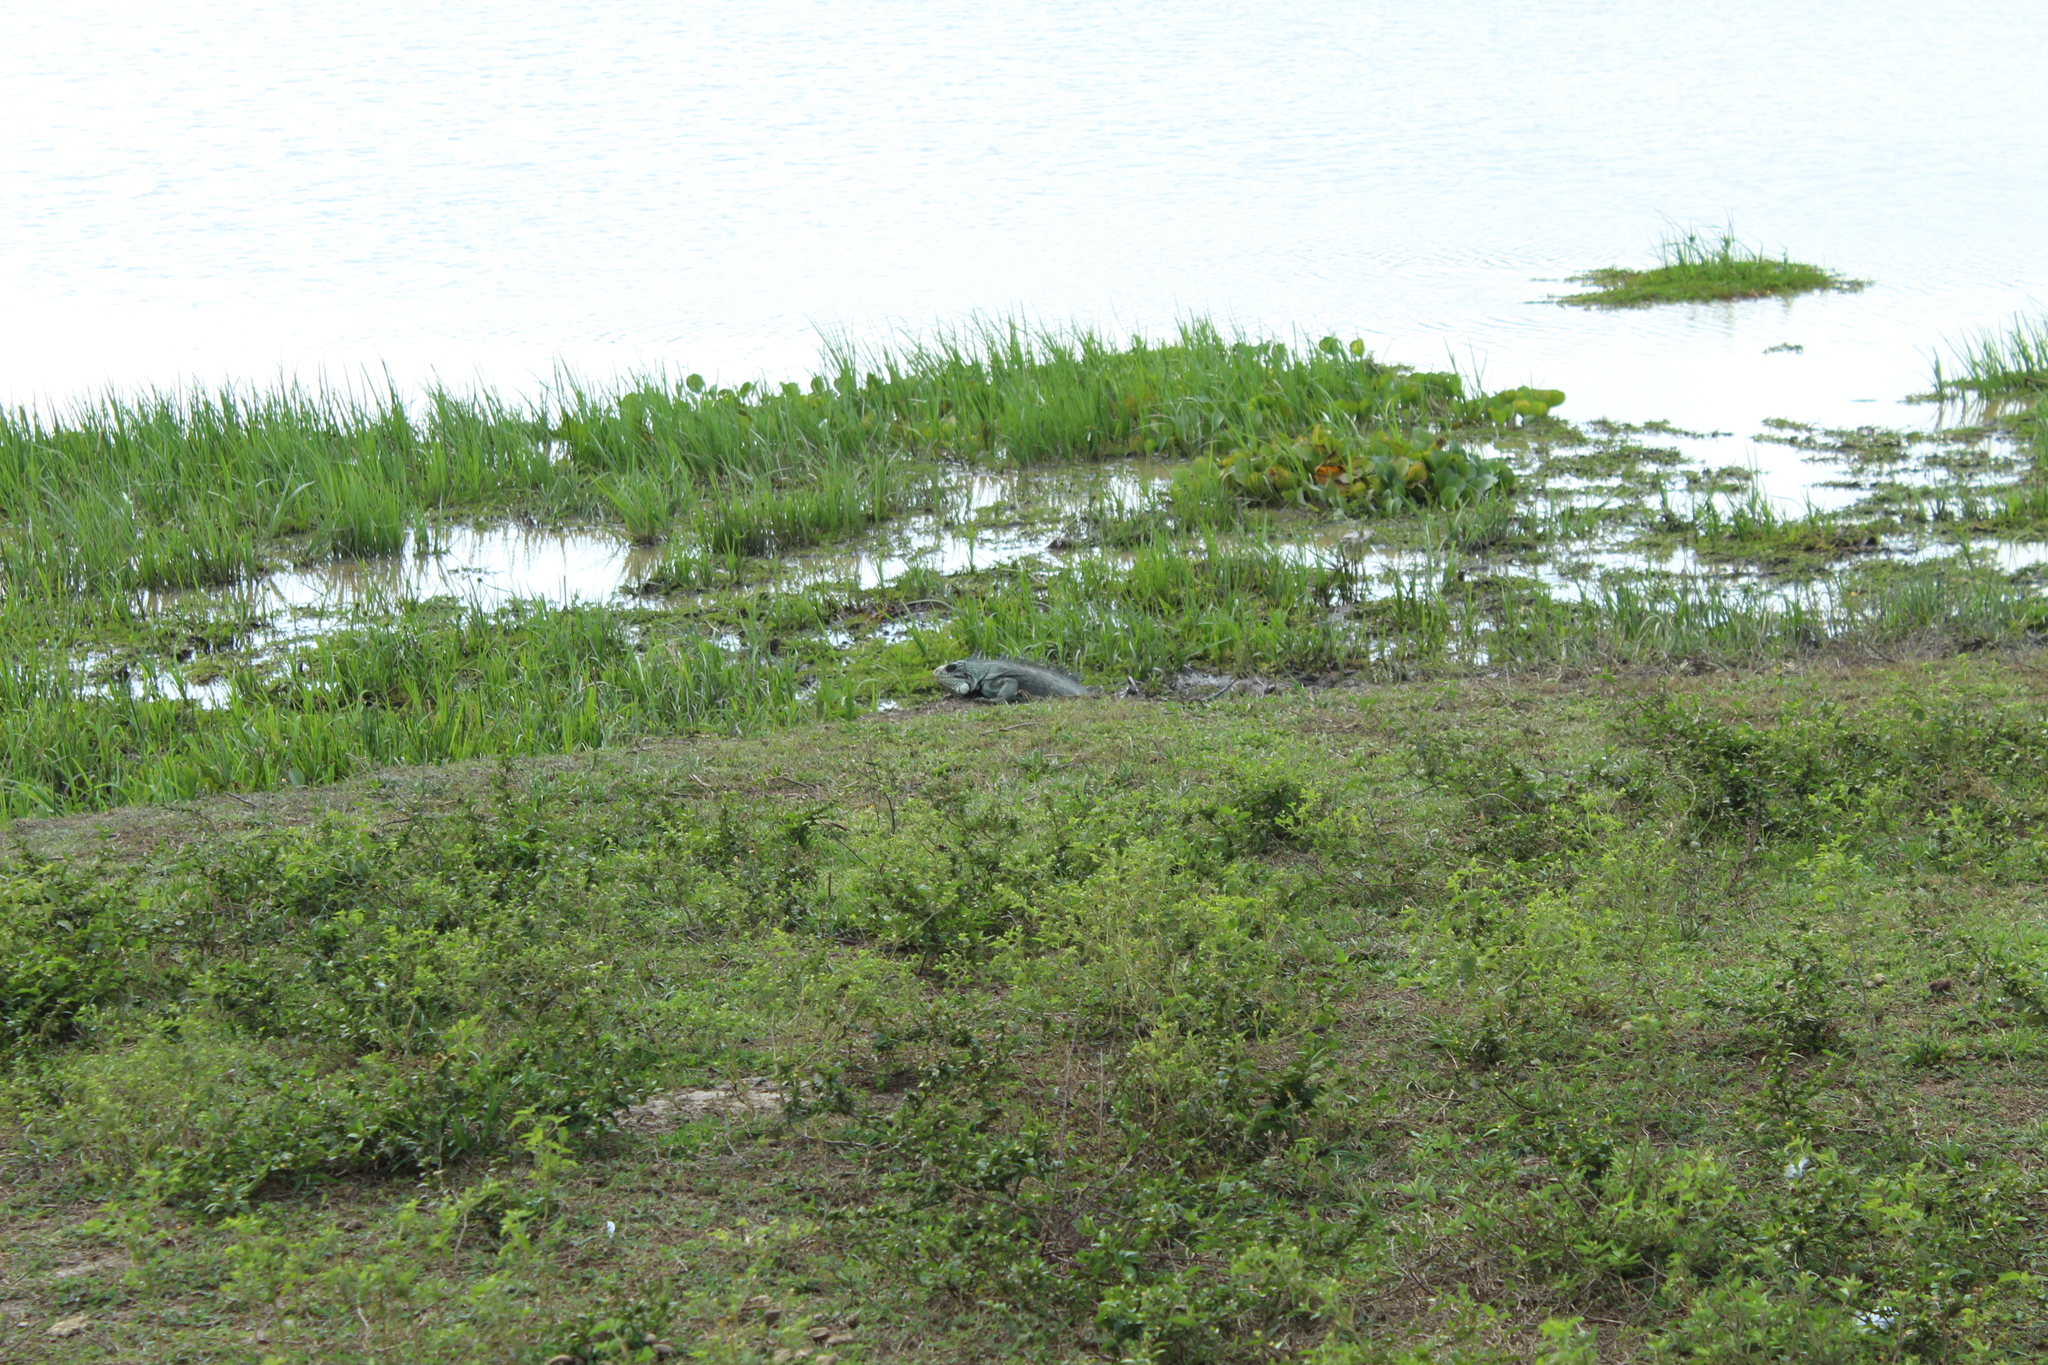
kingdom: Animalia
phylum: Chordata
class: Squamata
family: Iguanidae
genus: Iguana
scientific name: Iguana iguana
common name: Green iguana
